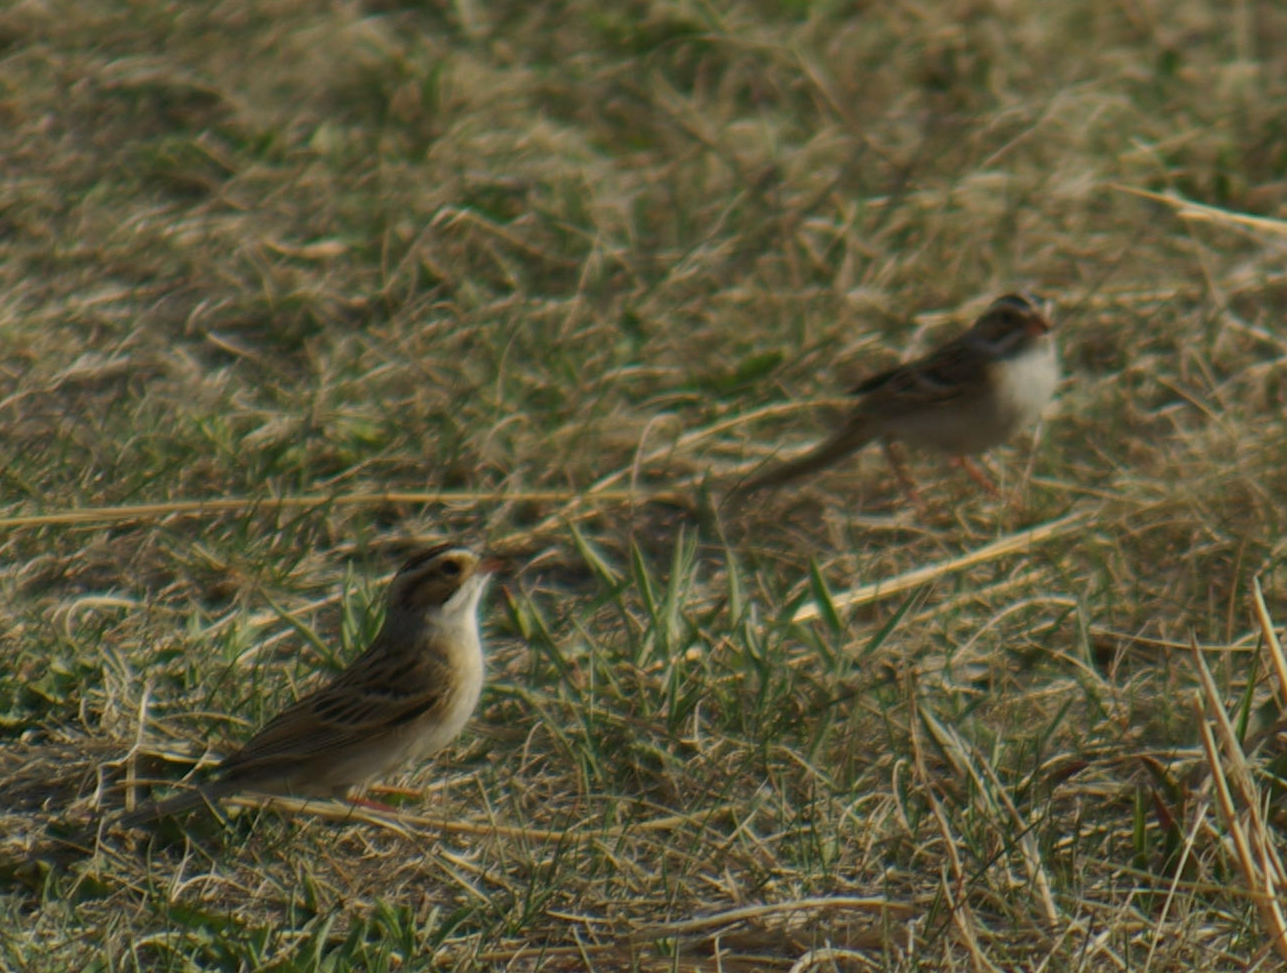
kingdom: Animalia
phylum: Chordata
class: Aves
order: Passeriformes
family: Passerellidae
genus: Spizella
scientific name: Spizella pallida
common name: Clay-colored sparrow
